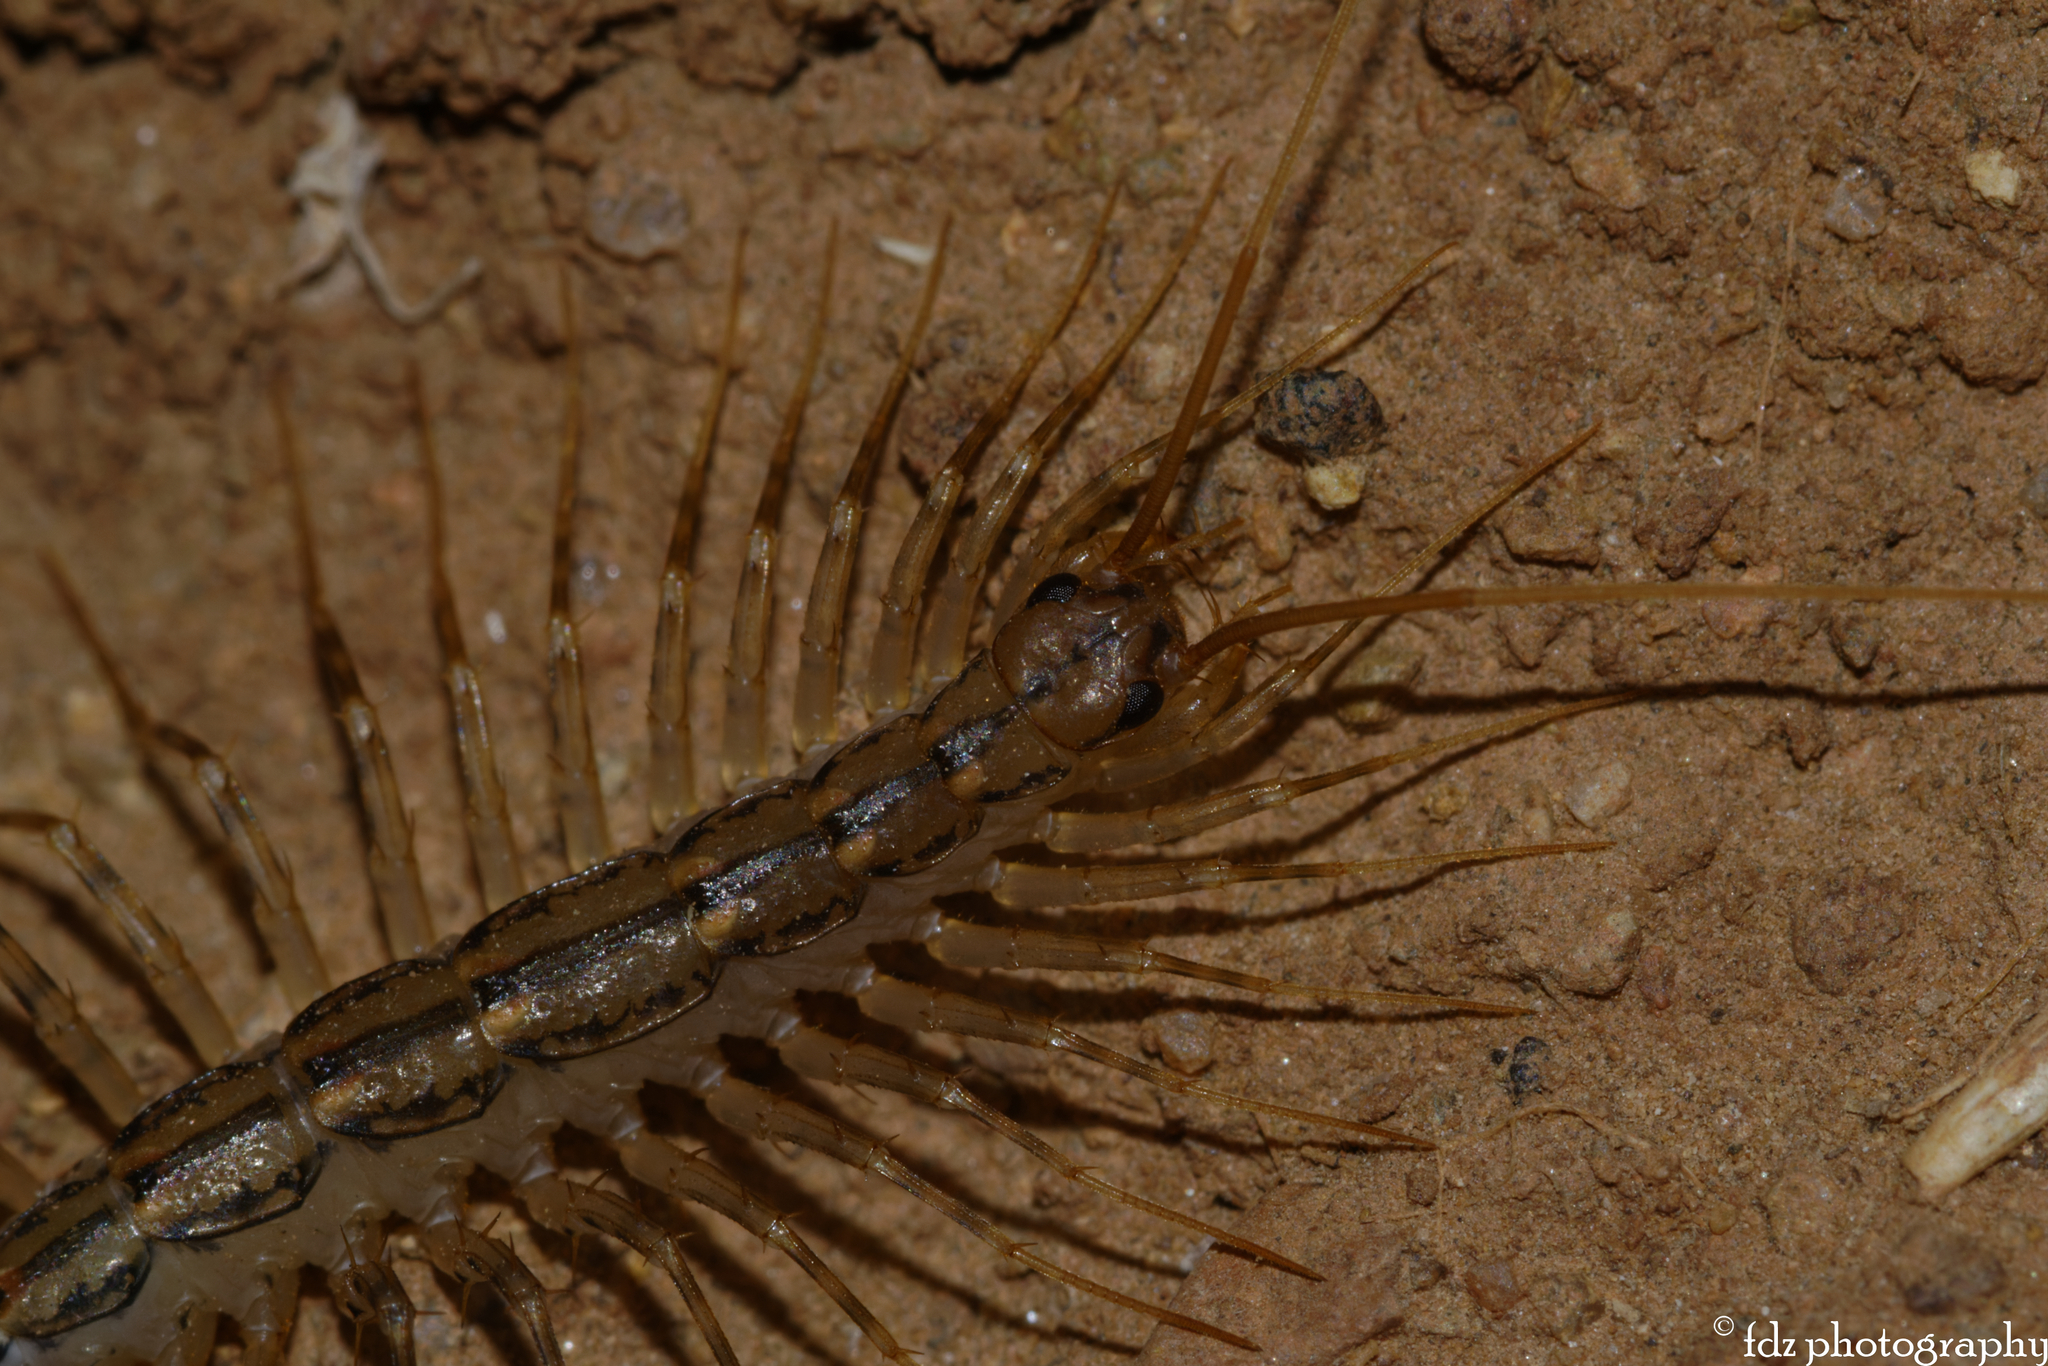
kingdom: Animalia
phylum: Arthropoda
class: Chilopoda
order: Scutigeromorpha
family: Scutigeridae
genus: Scutigera
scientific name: Scutigera coleoptrata
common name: House centipede
